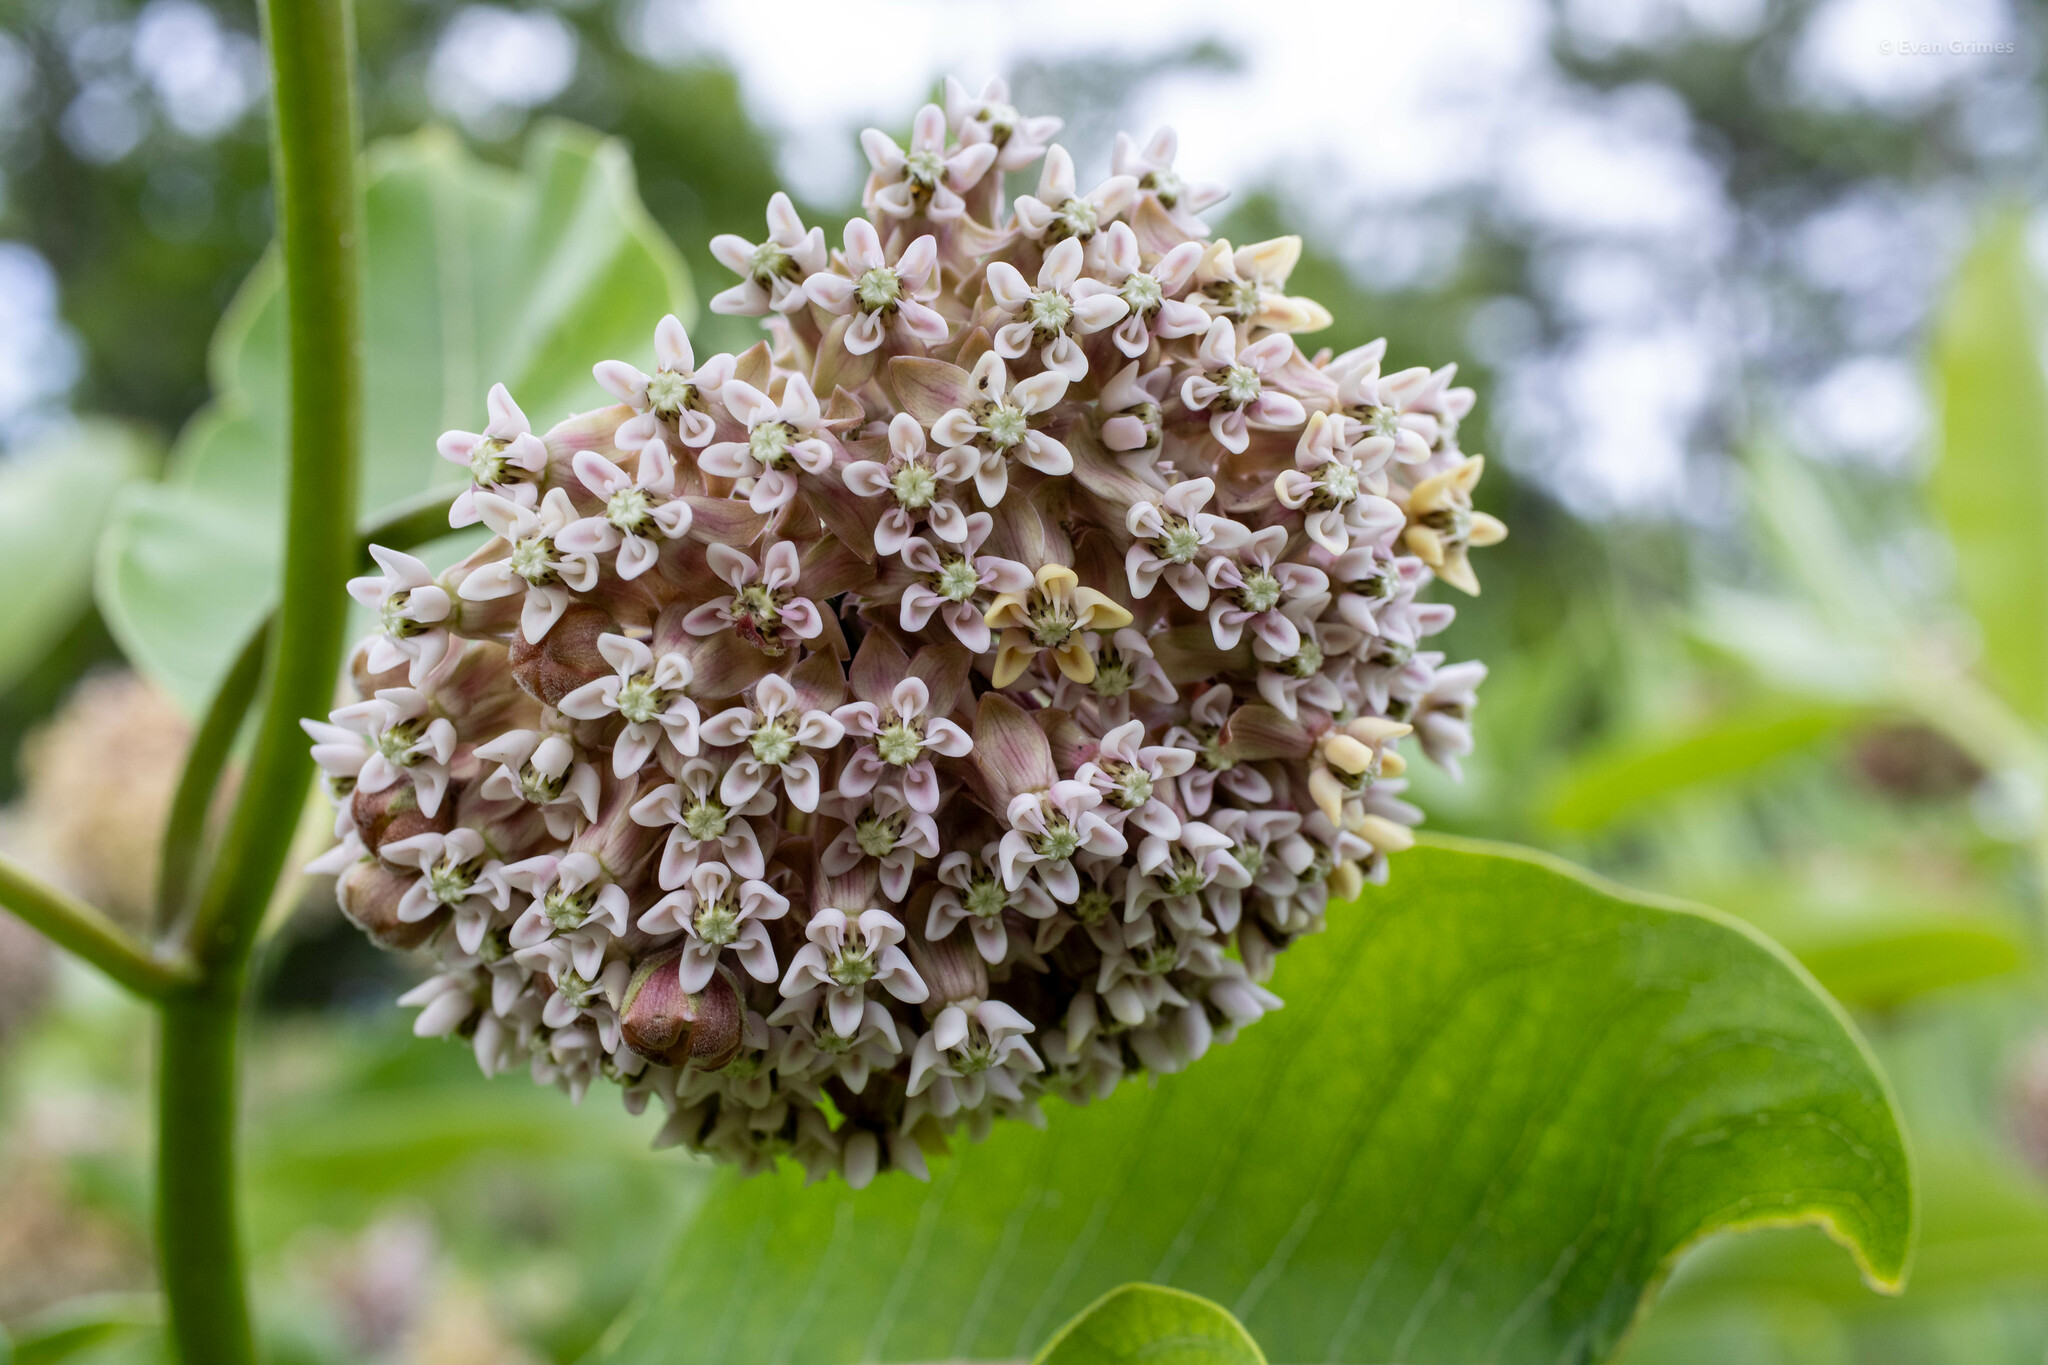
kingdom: Plantae
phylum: Tracheophyta
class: Magnoliopsida
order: Gentianales
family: Apocynaceae
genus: Asclepias
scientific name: Asclepias syriaca
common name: Common milkweed
